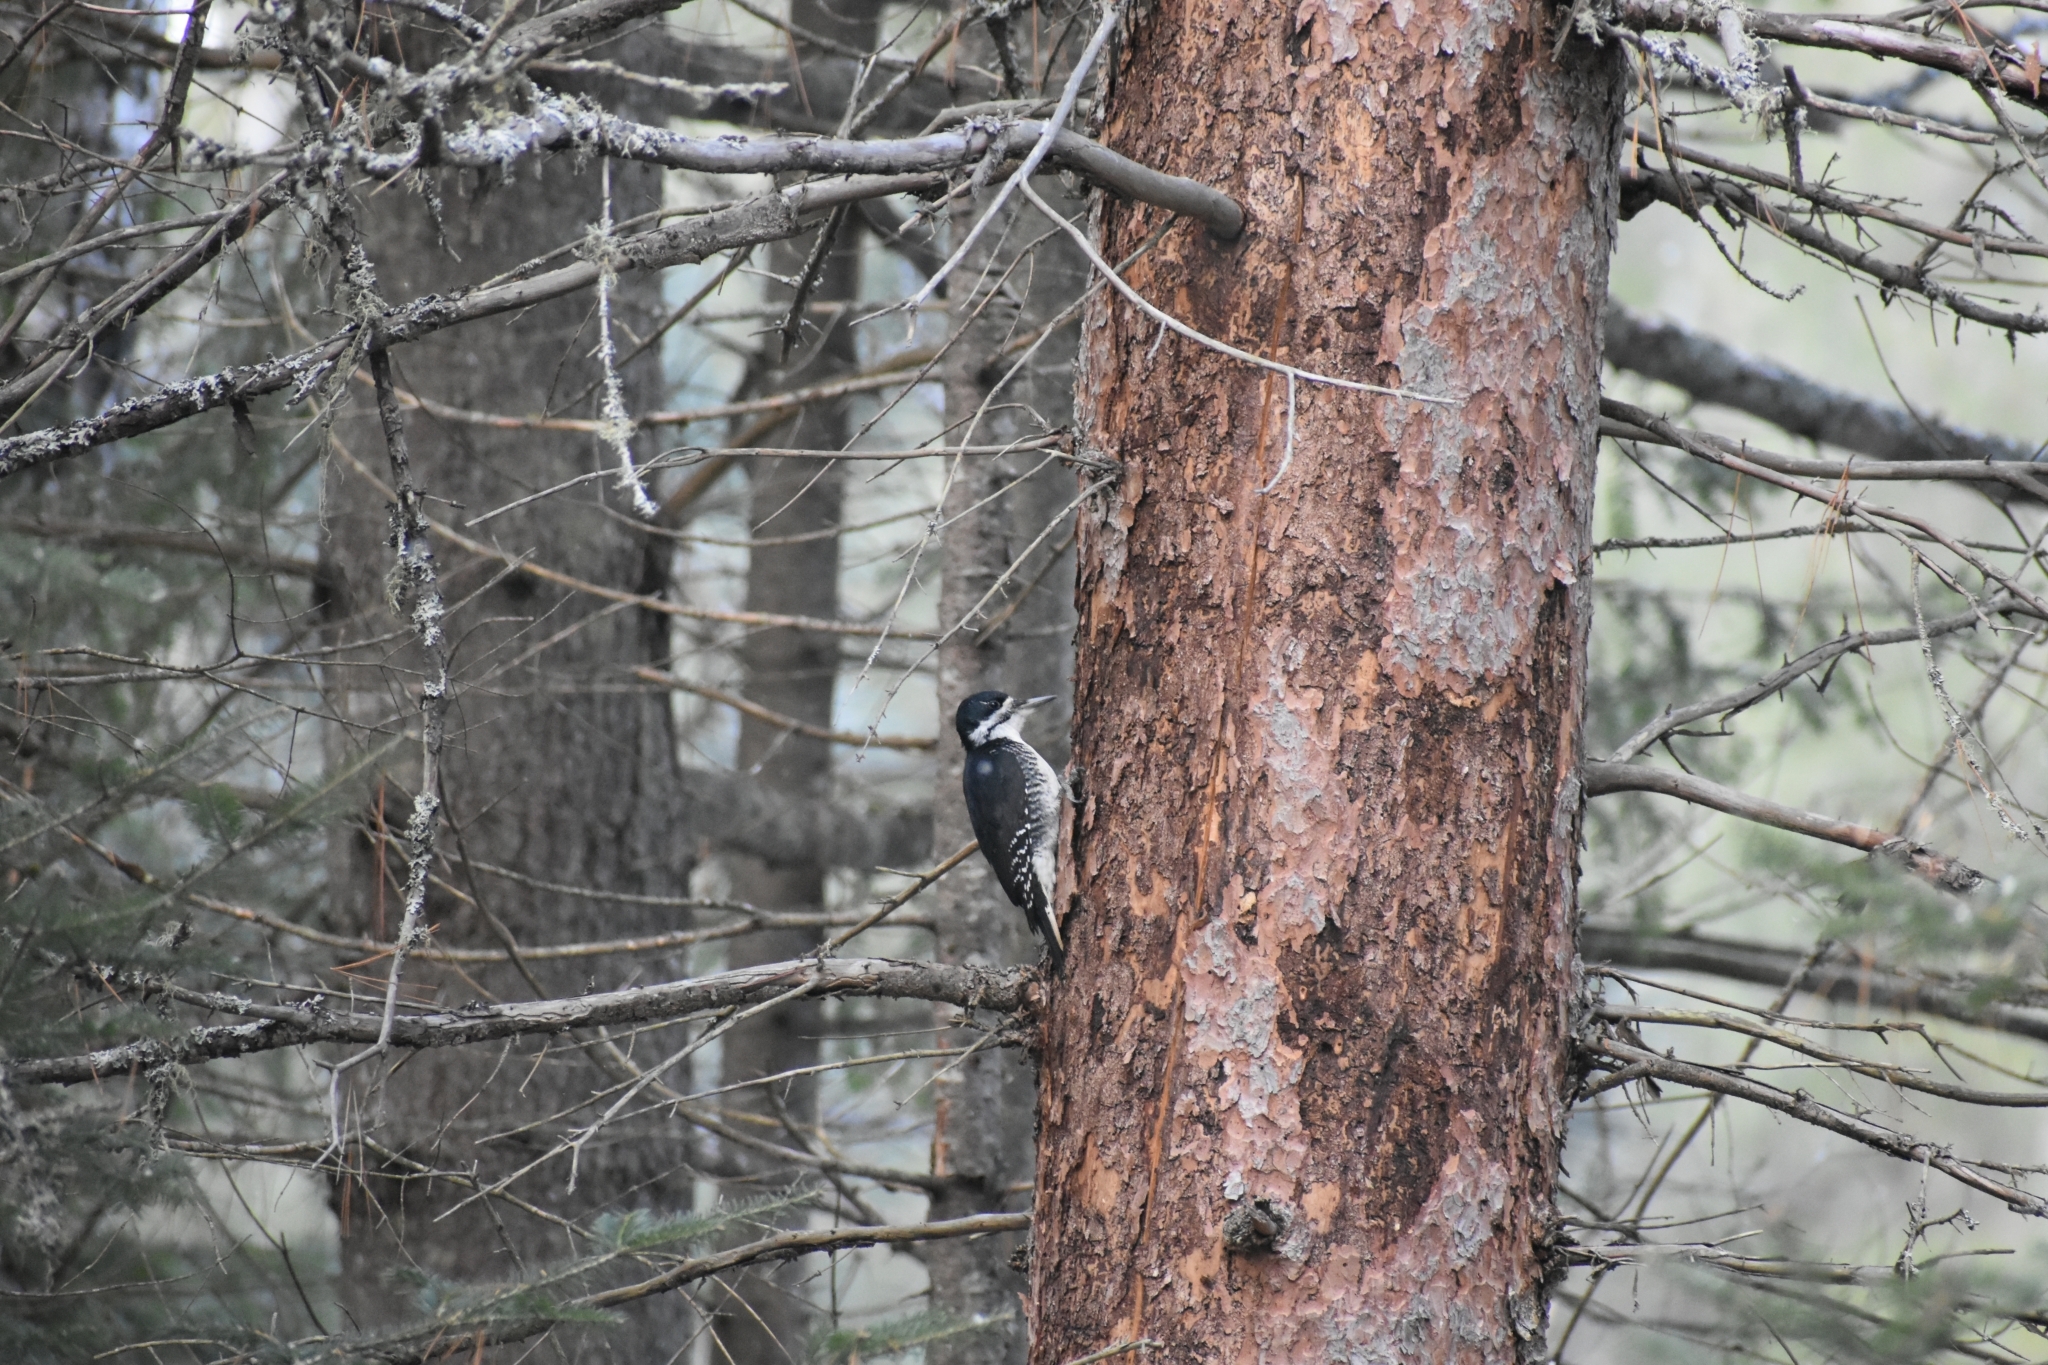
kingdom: Animalia
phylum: Chordata
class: Aves
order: Piciformes
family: Picidae
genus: Picoides
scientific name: Picoides arcticus
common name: Black-backed woodpecker
